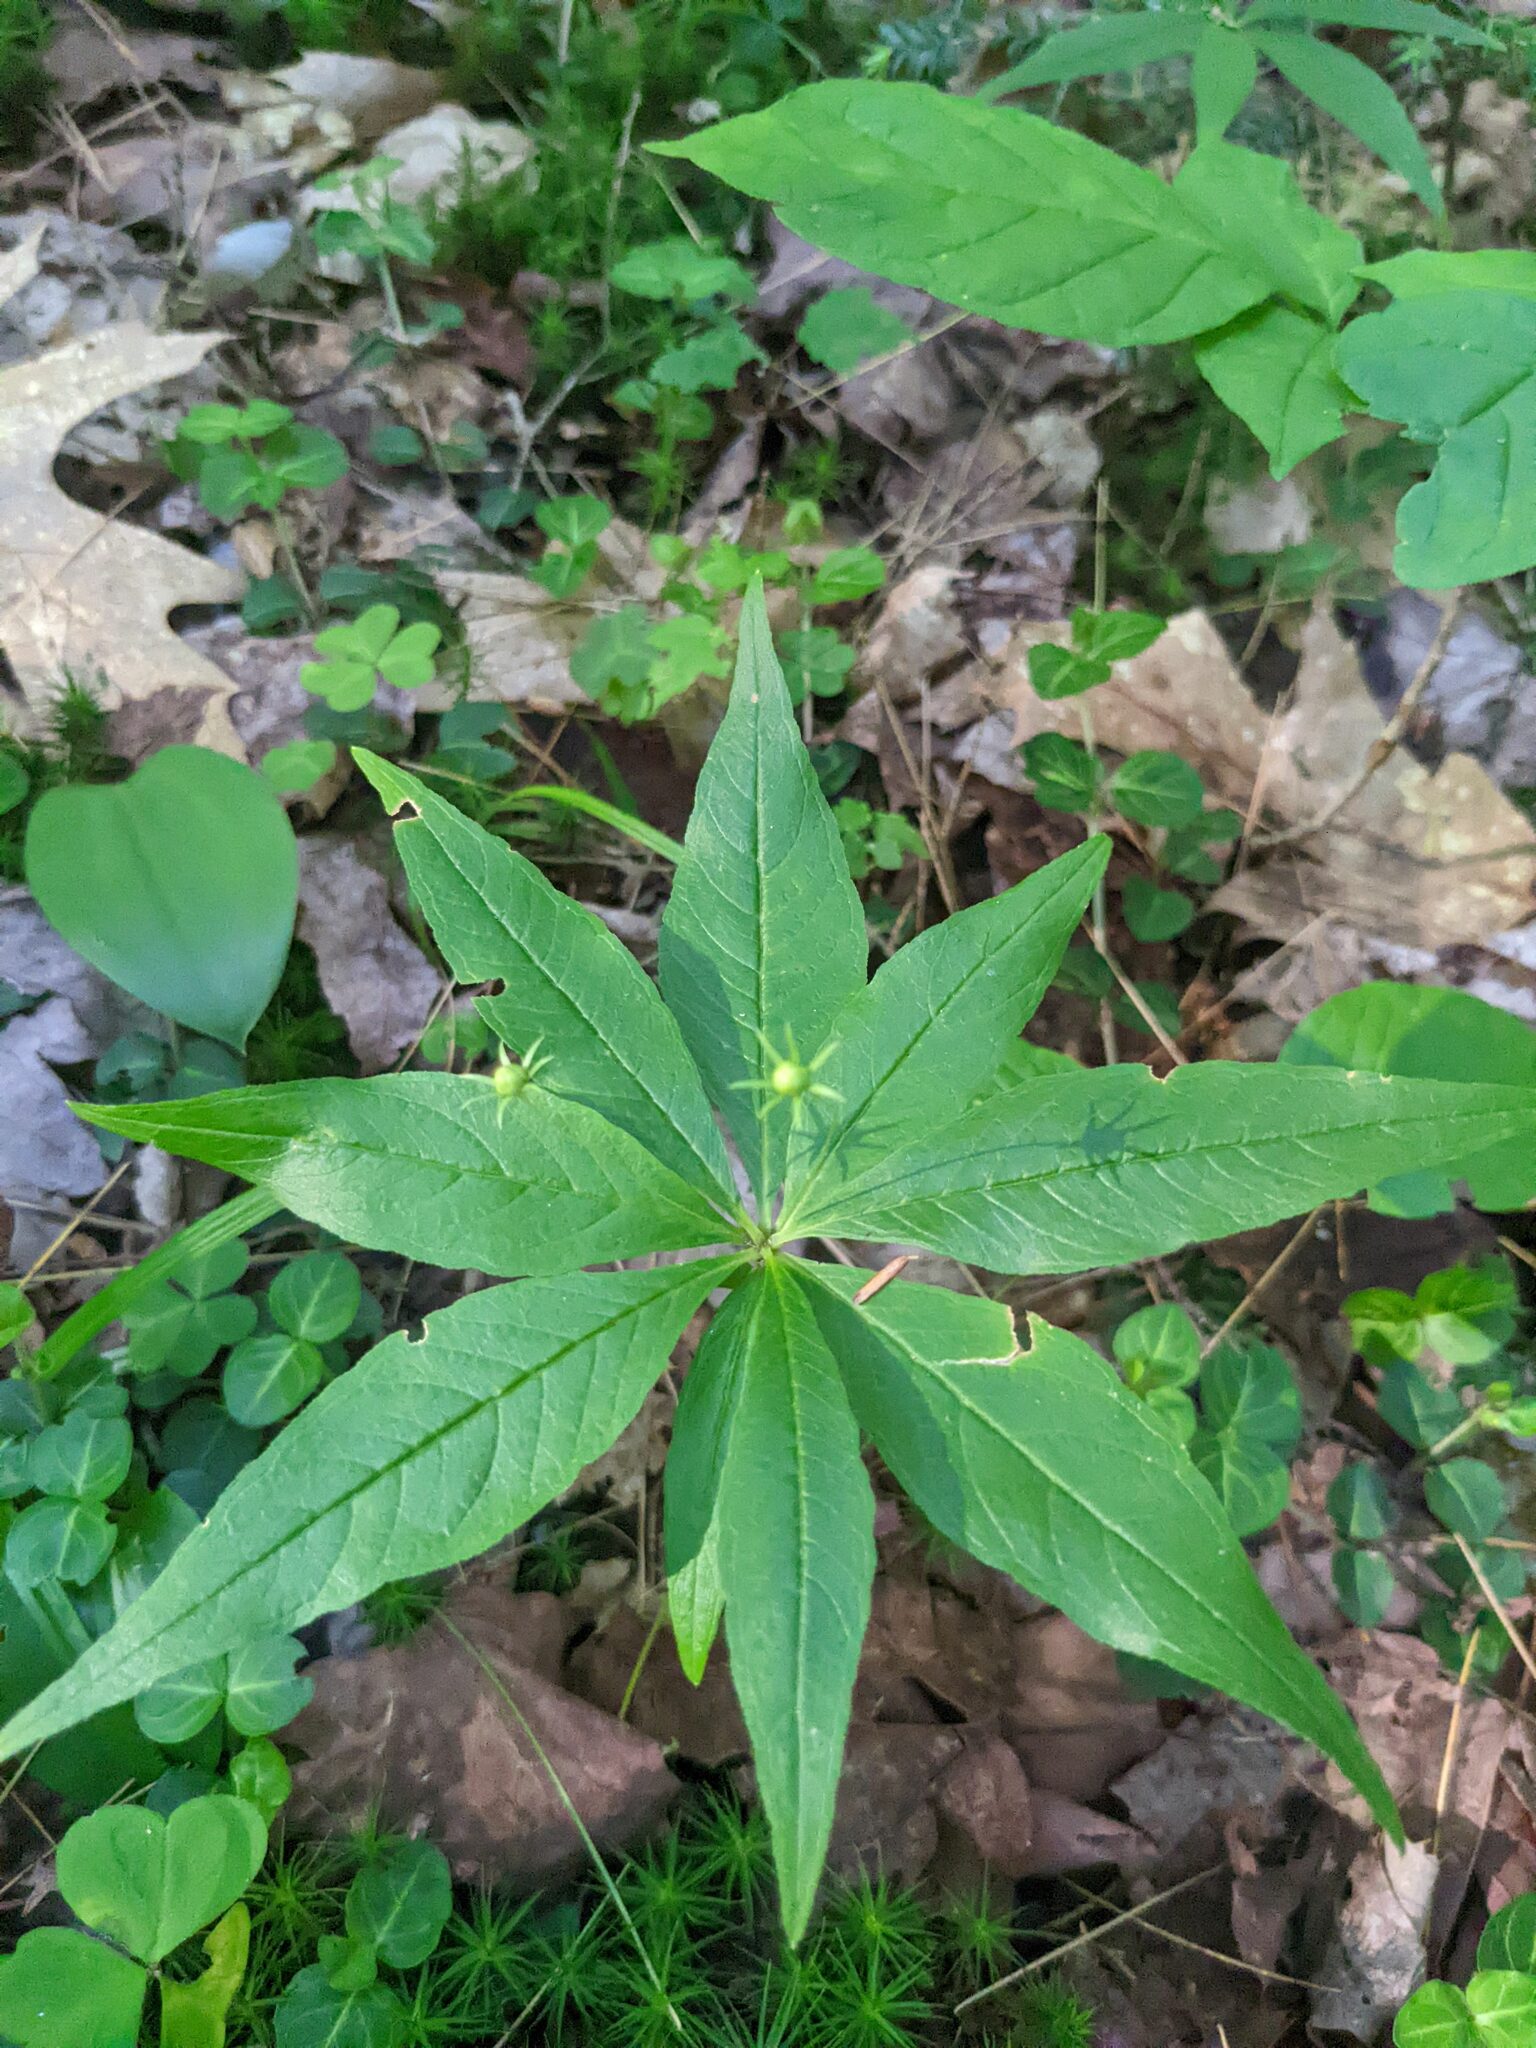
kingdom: Plantae
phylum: Tracheophyta
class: Magnoliopsida
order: Ericales
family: Primulaceae
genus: Lysimachia
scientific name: Lysimachia borealis
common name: American starflower
